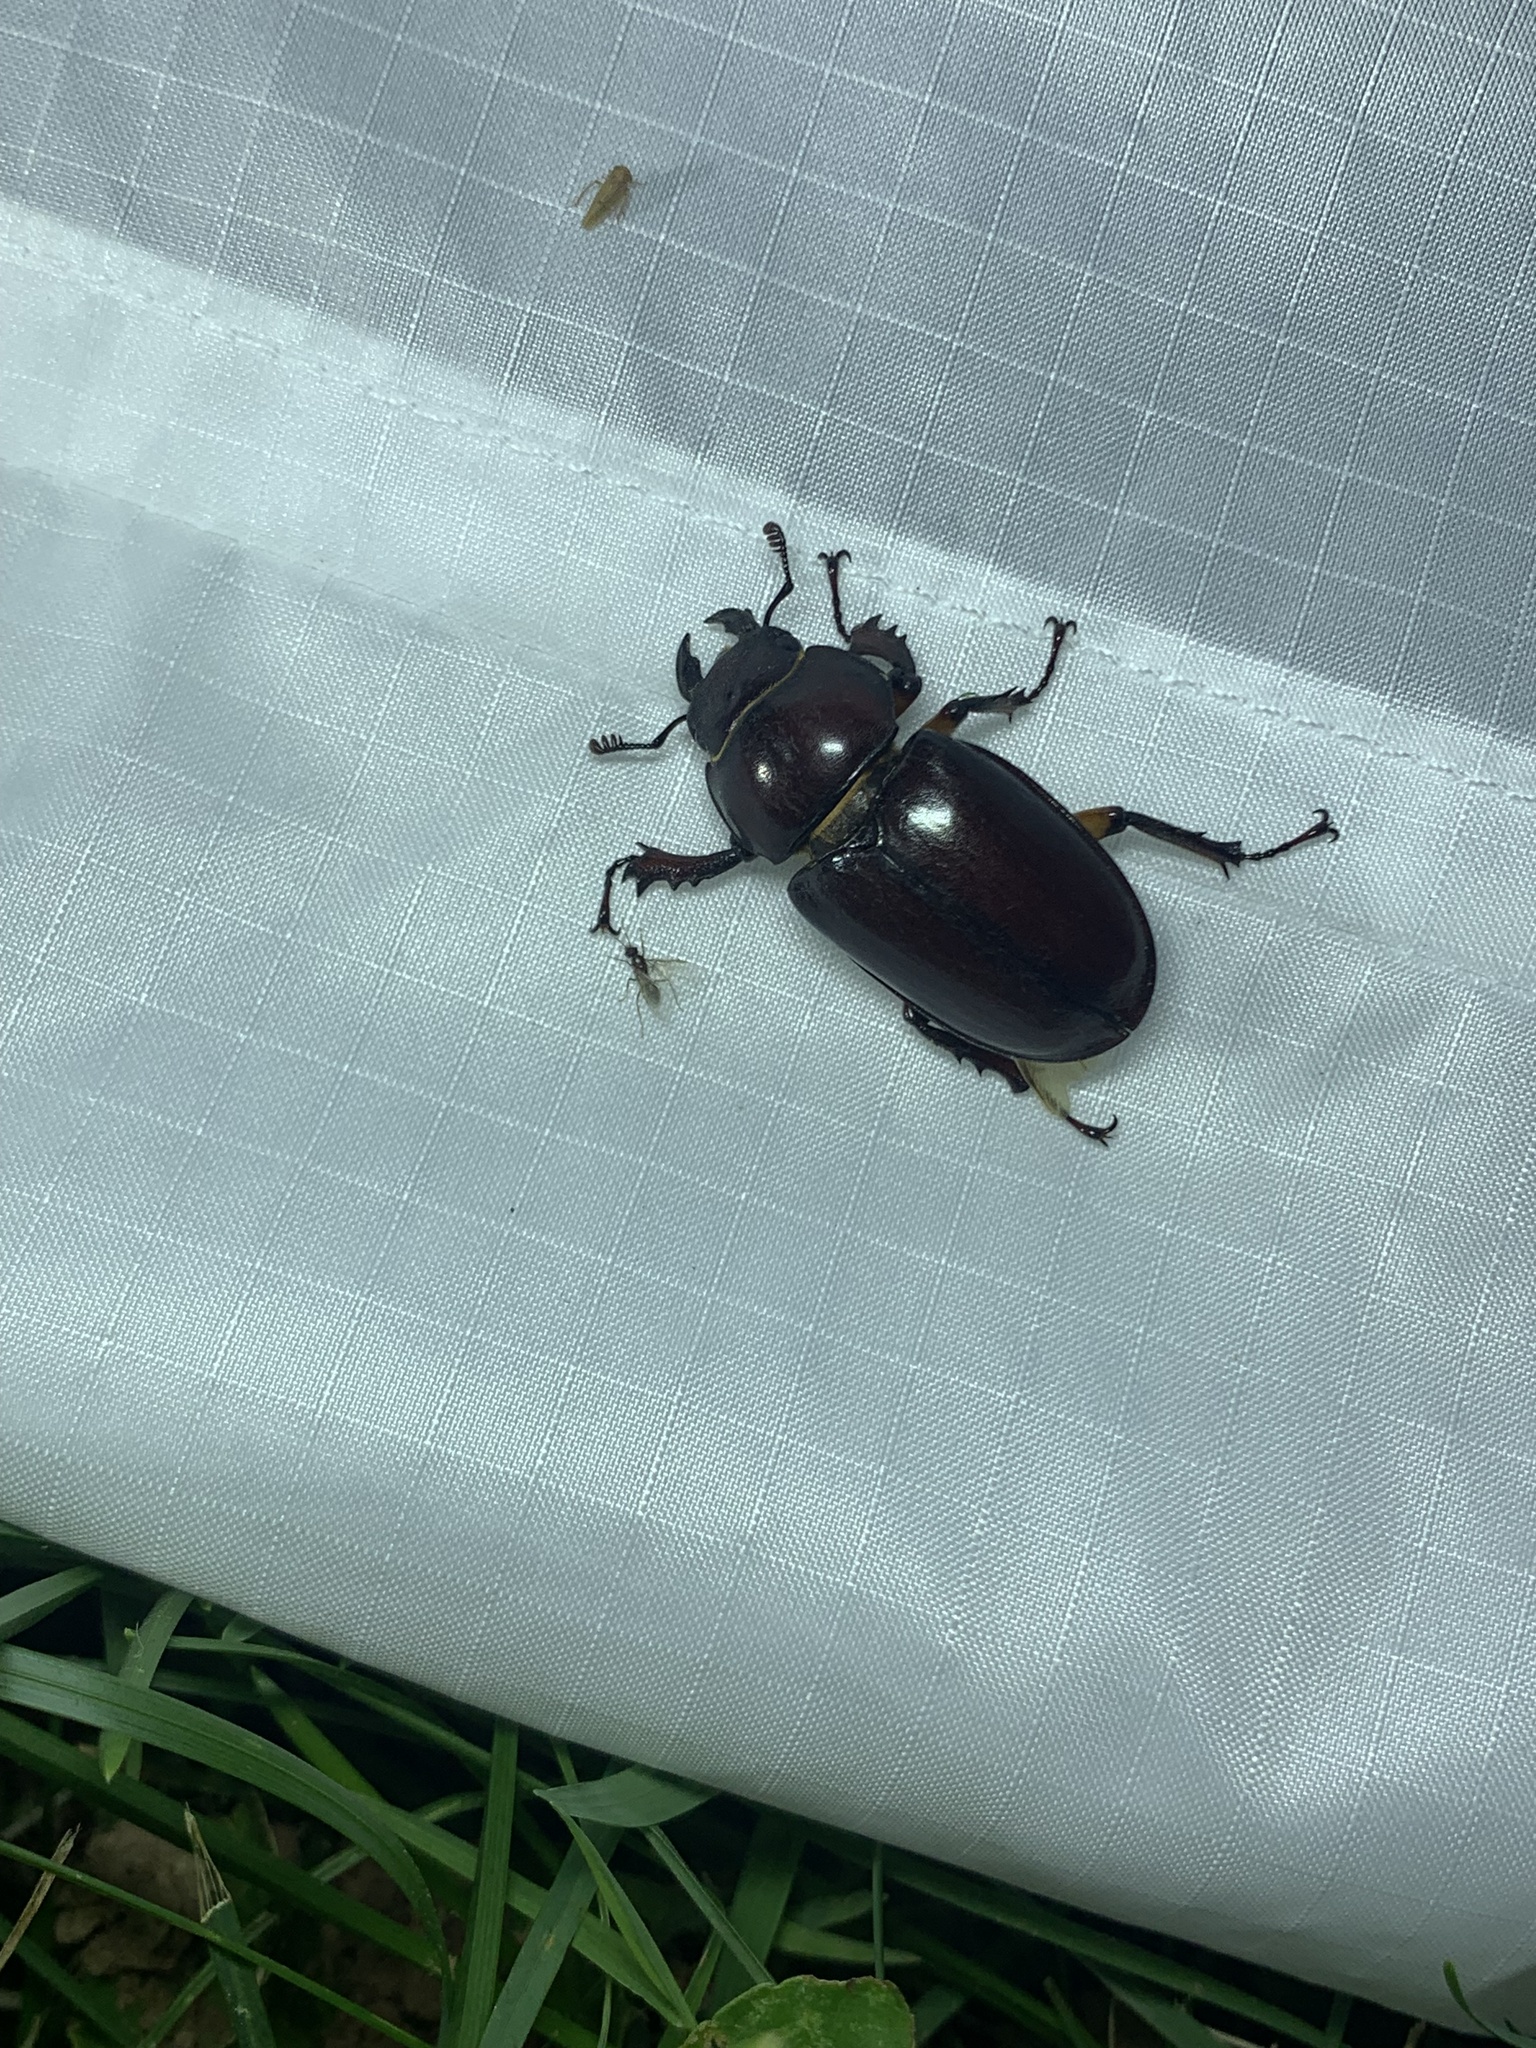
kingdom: Animalia
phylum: Arthropoda
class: Insecta
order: Coleoptera
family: Lucanidae
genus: Lucanus
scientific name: Lucanus capreolus
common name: Stag beetle
